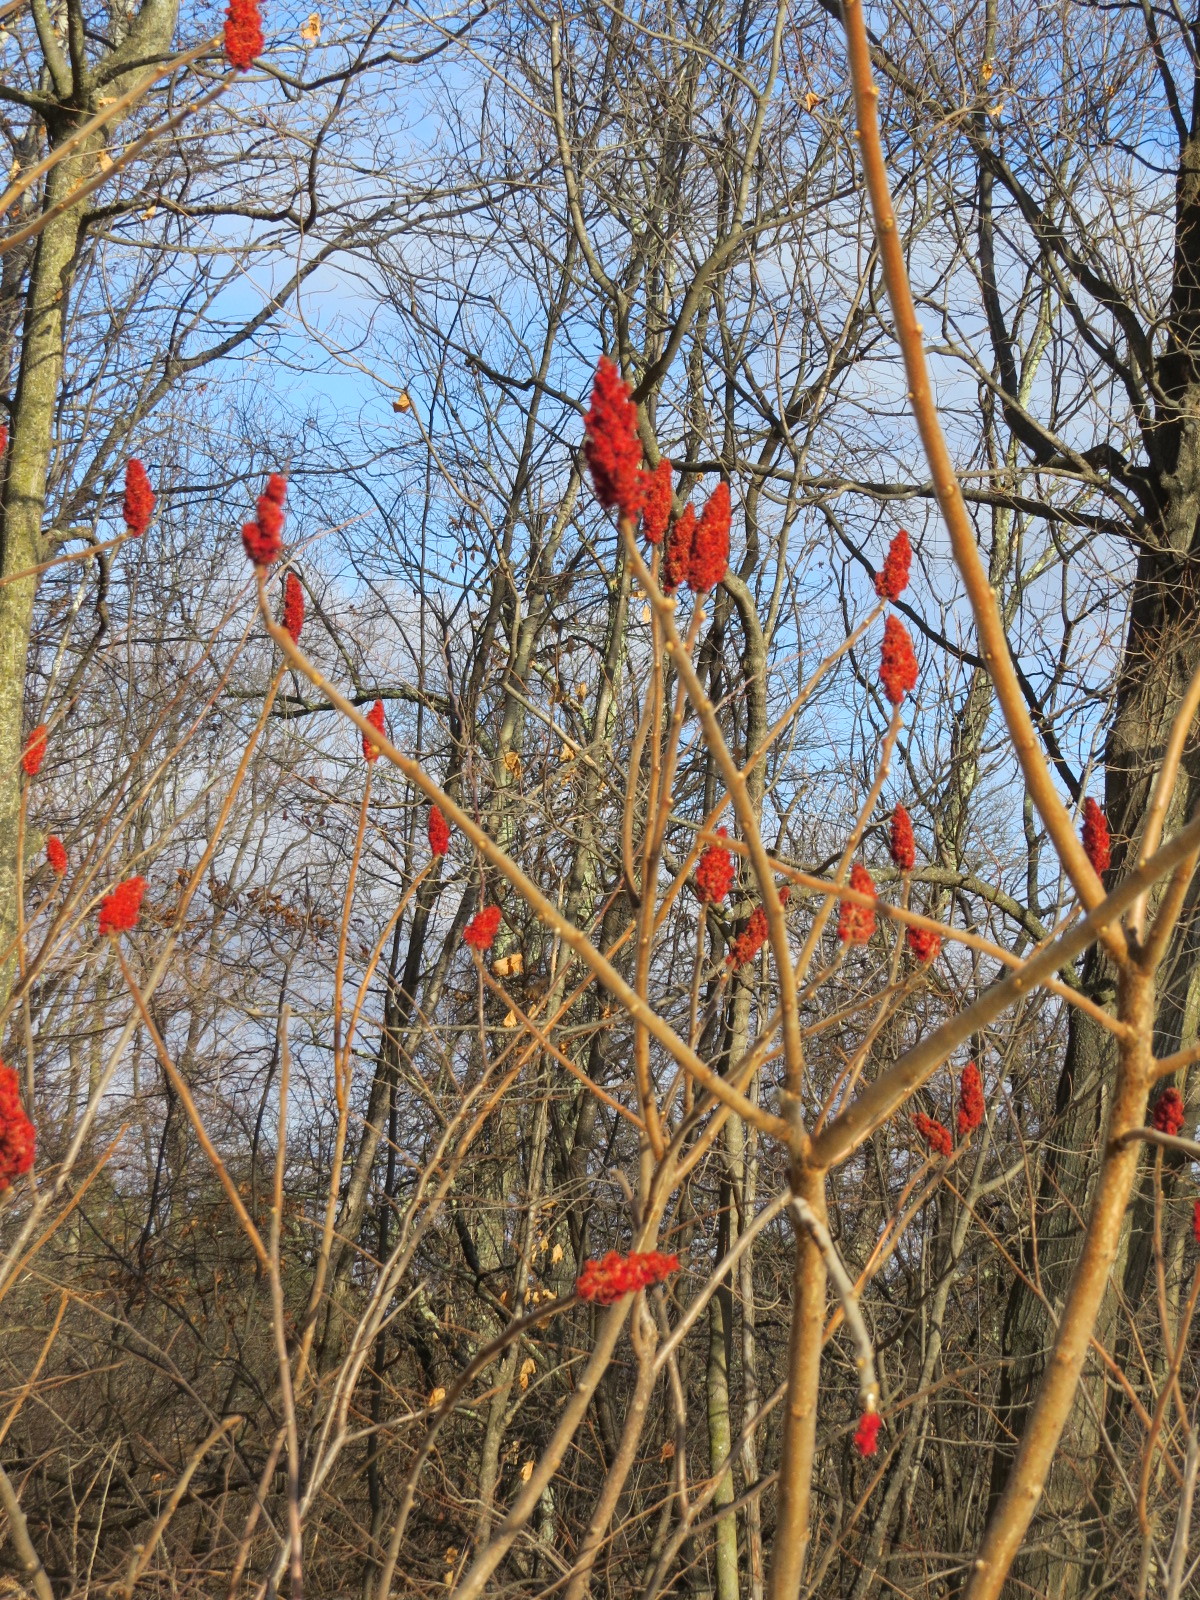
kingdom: Plantae
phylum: Tracheophyta
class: Magnoliopsida
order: Sapindales
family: Anacardiaceae
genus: Rhus
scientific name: Rhus typhina
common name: Staghorn sumac
